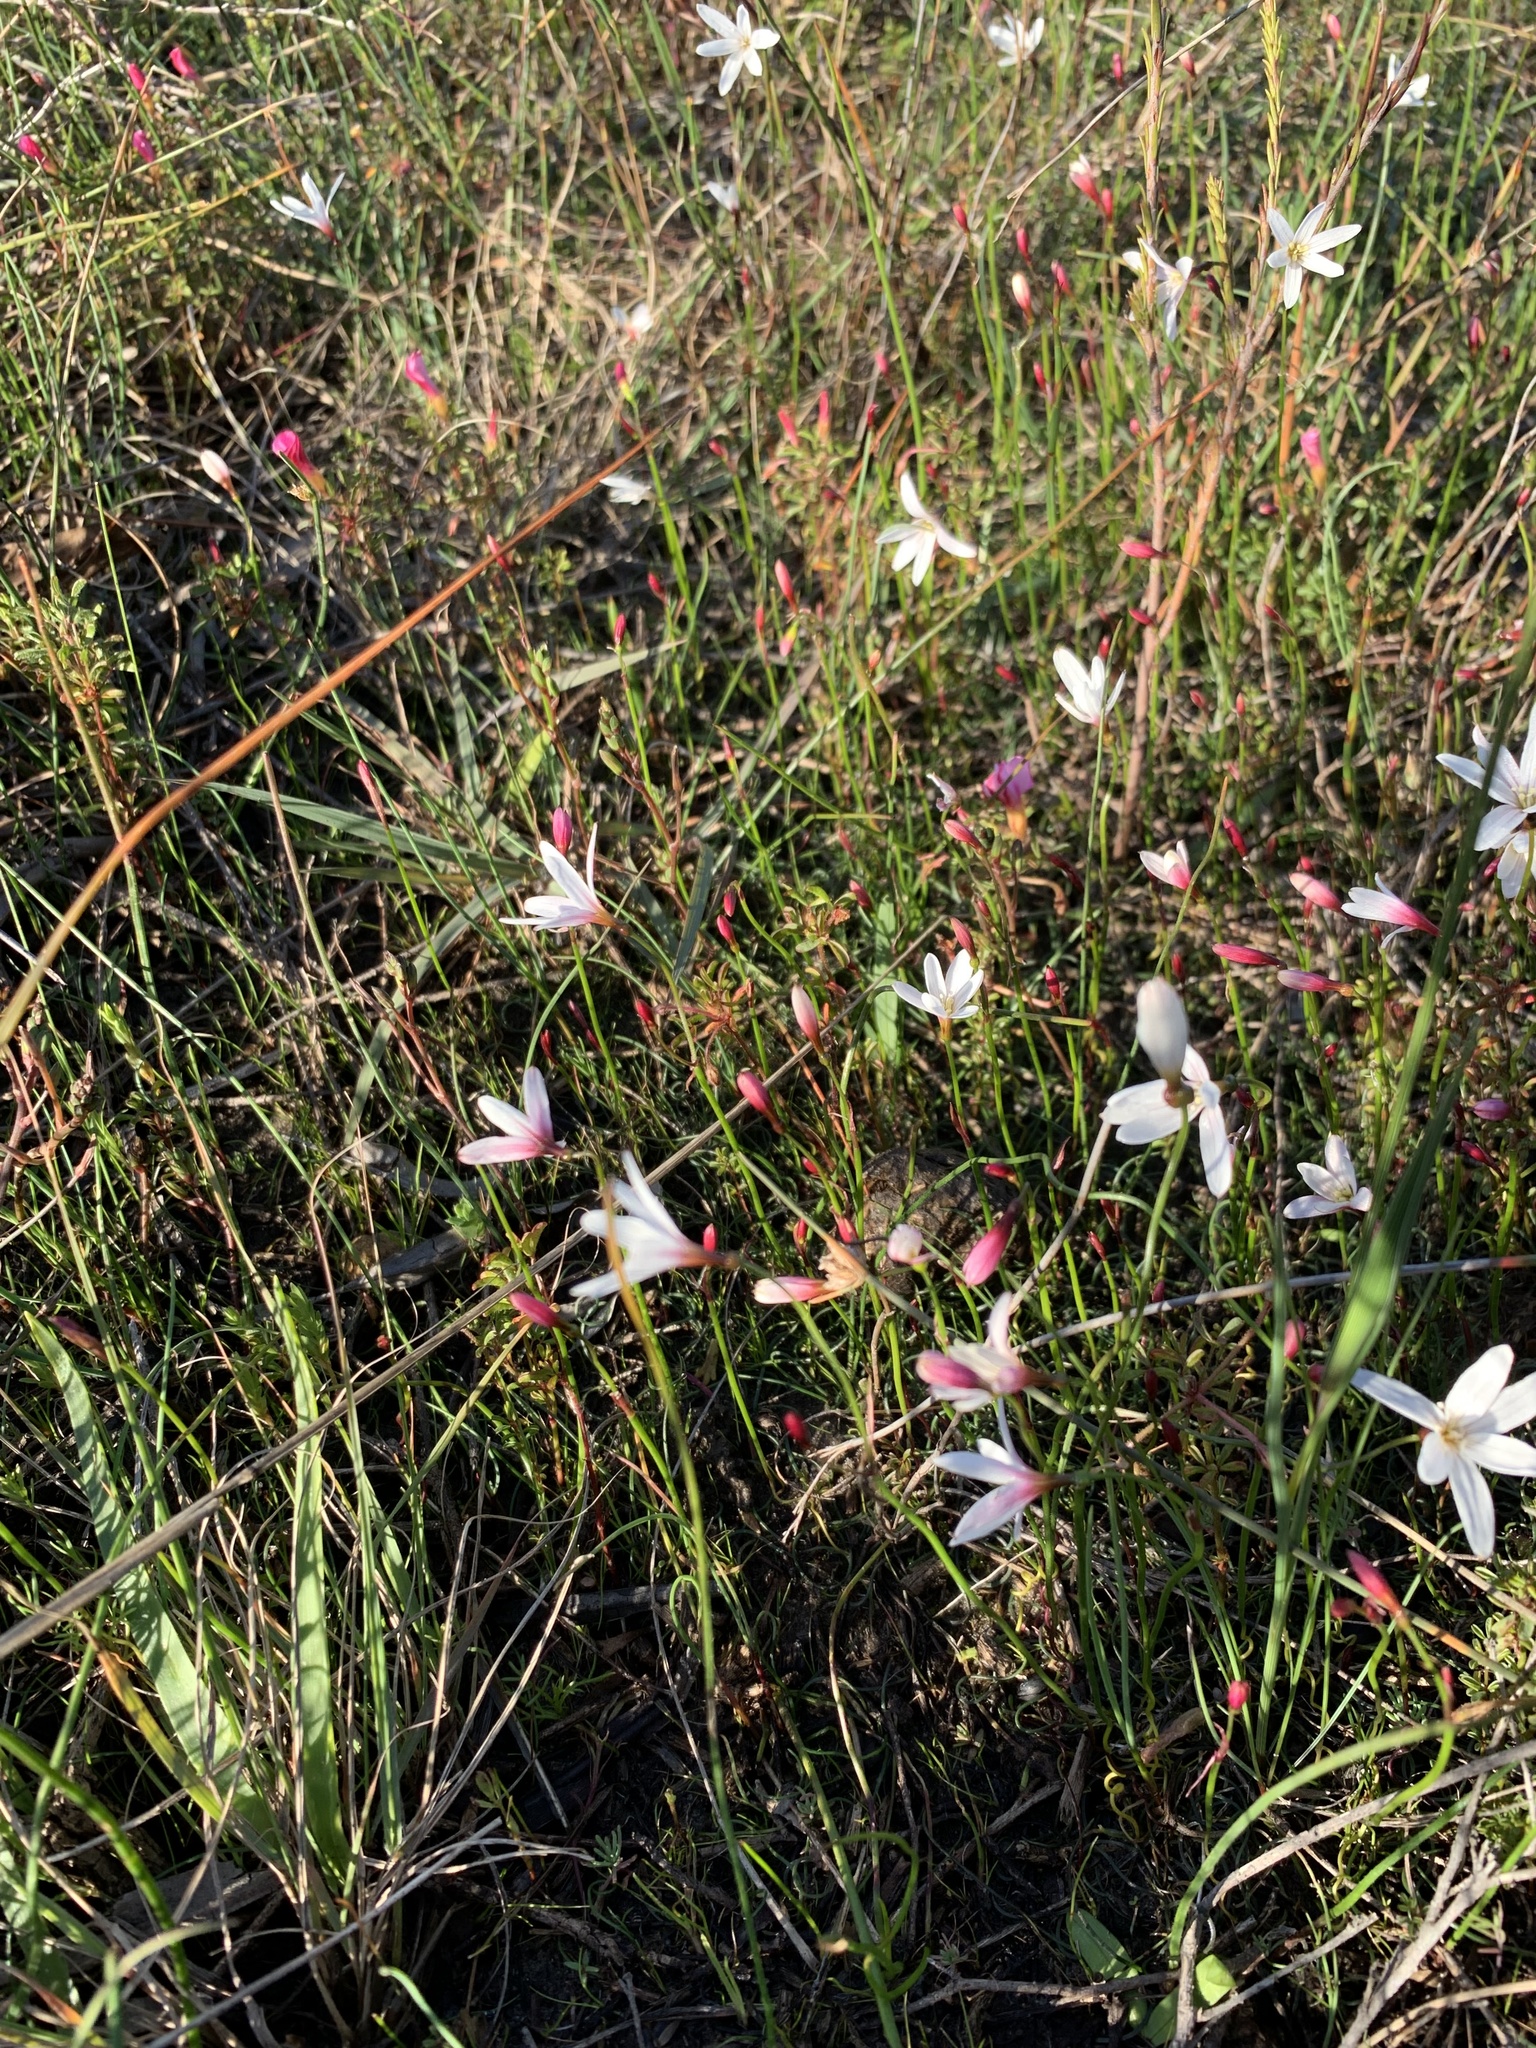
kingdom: Plantae
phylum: Tracheophyta
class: Liliopsida
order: Asparagales
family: Amaryllidaceae
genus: Strumaria
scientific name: Strumaria spiralis
